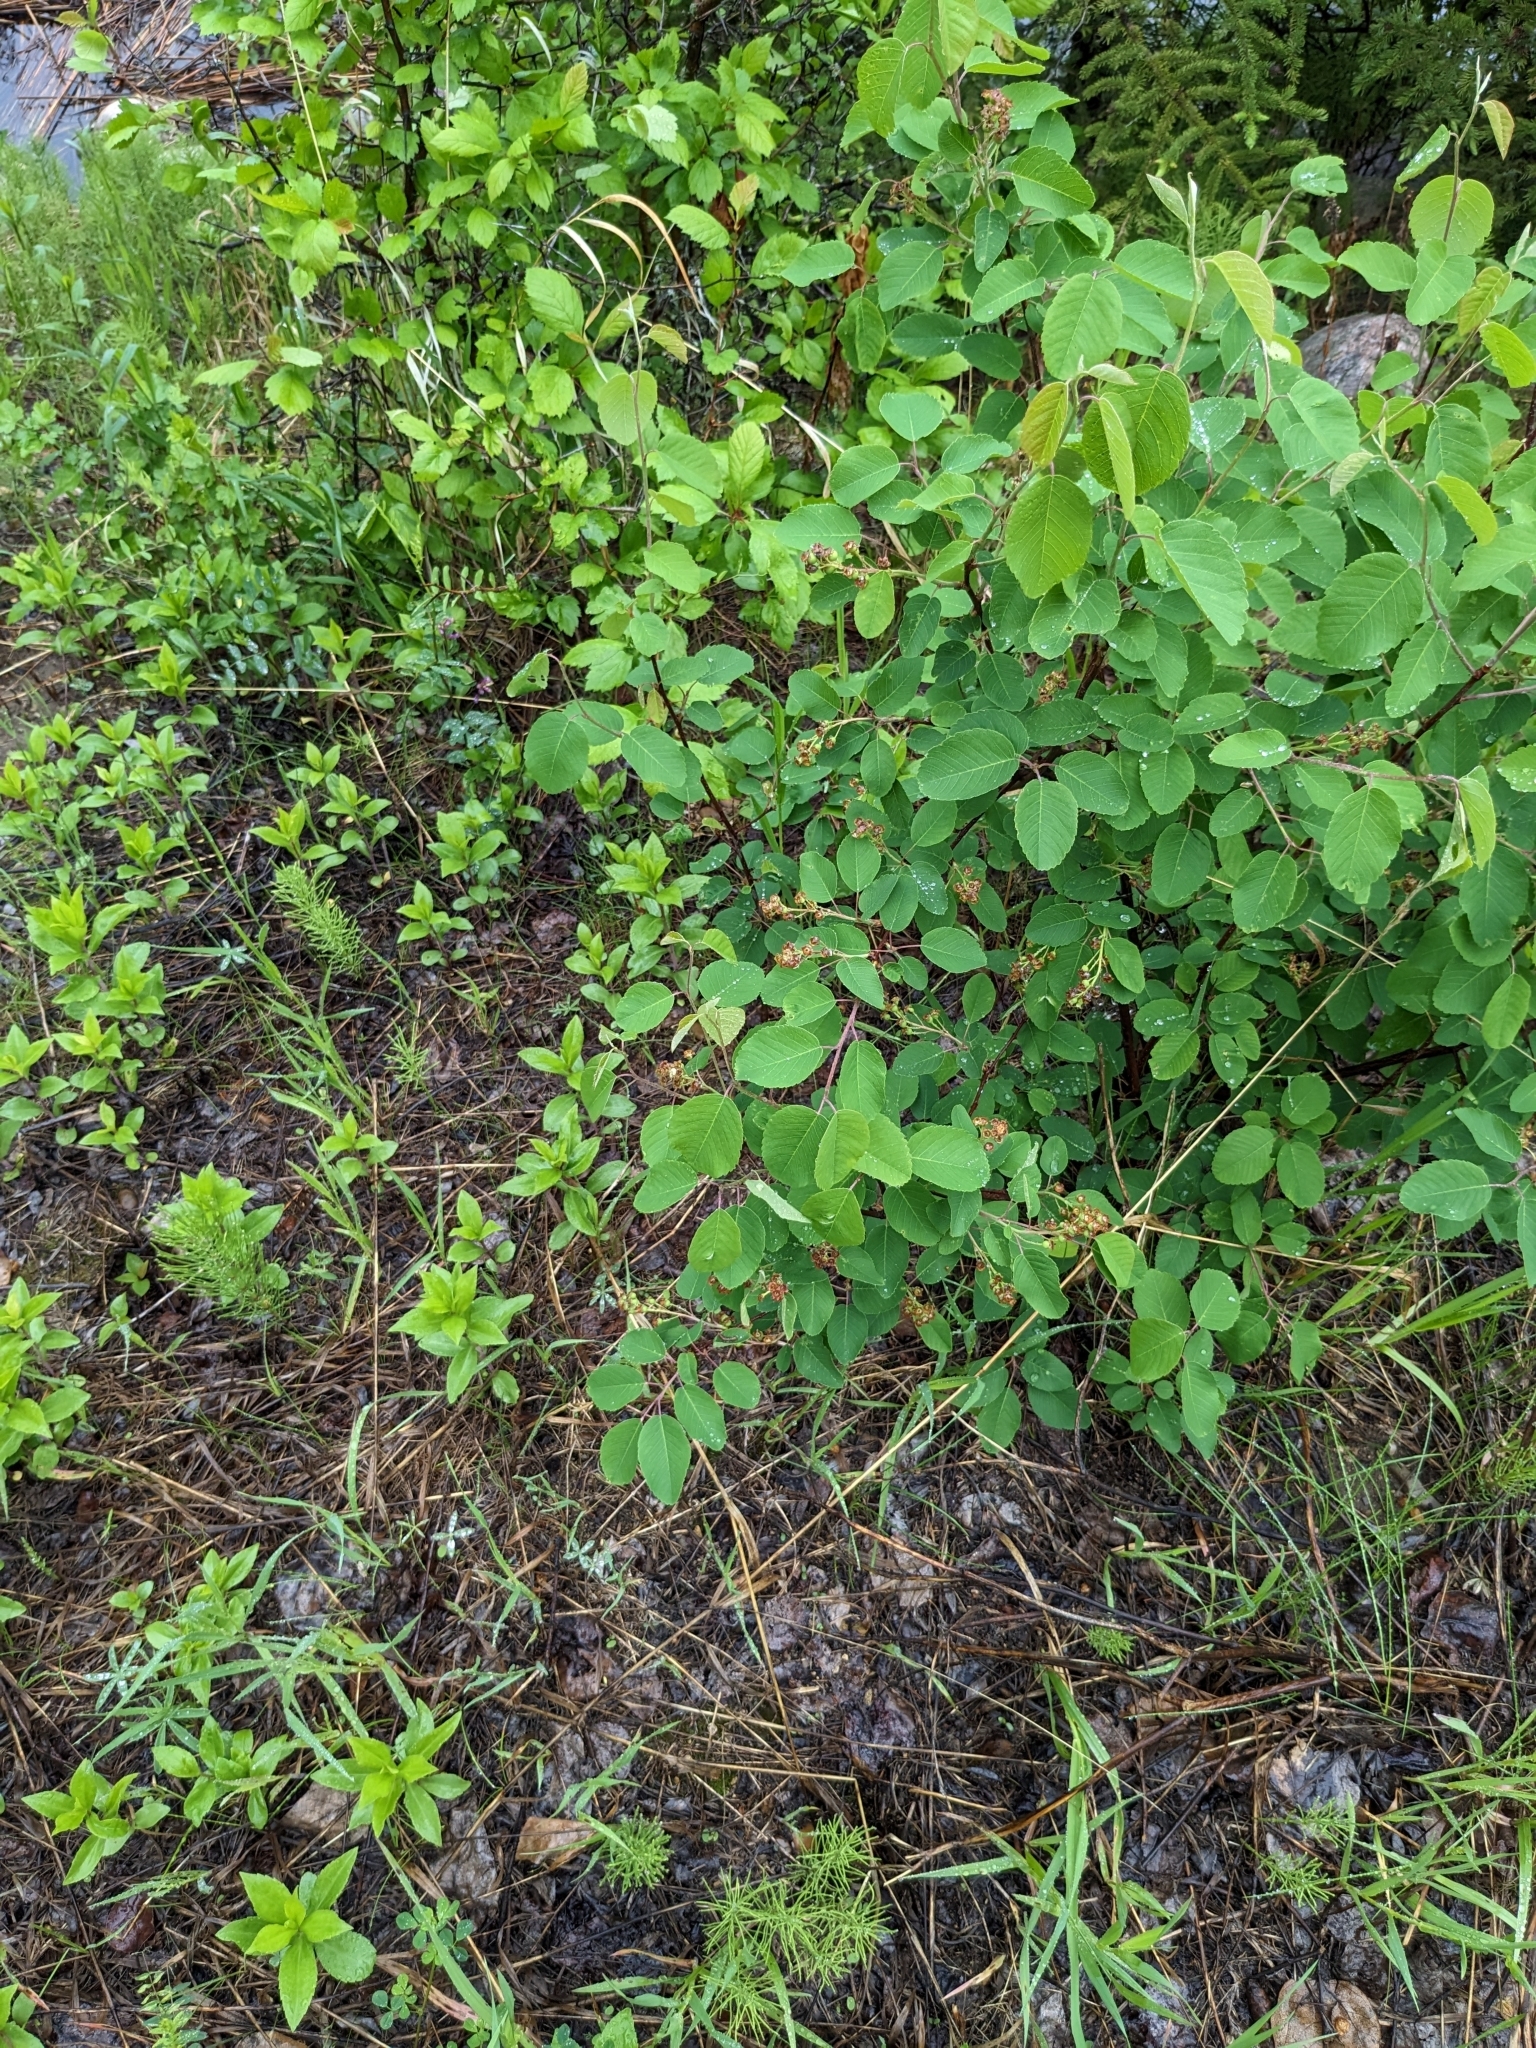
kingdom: Plantae
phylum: Tracheophyta
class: Magnoliopsida
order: Rosales
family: Rosaceae
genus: Amelanchier
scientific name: Amelanchier alnifolia
